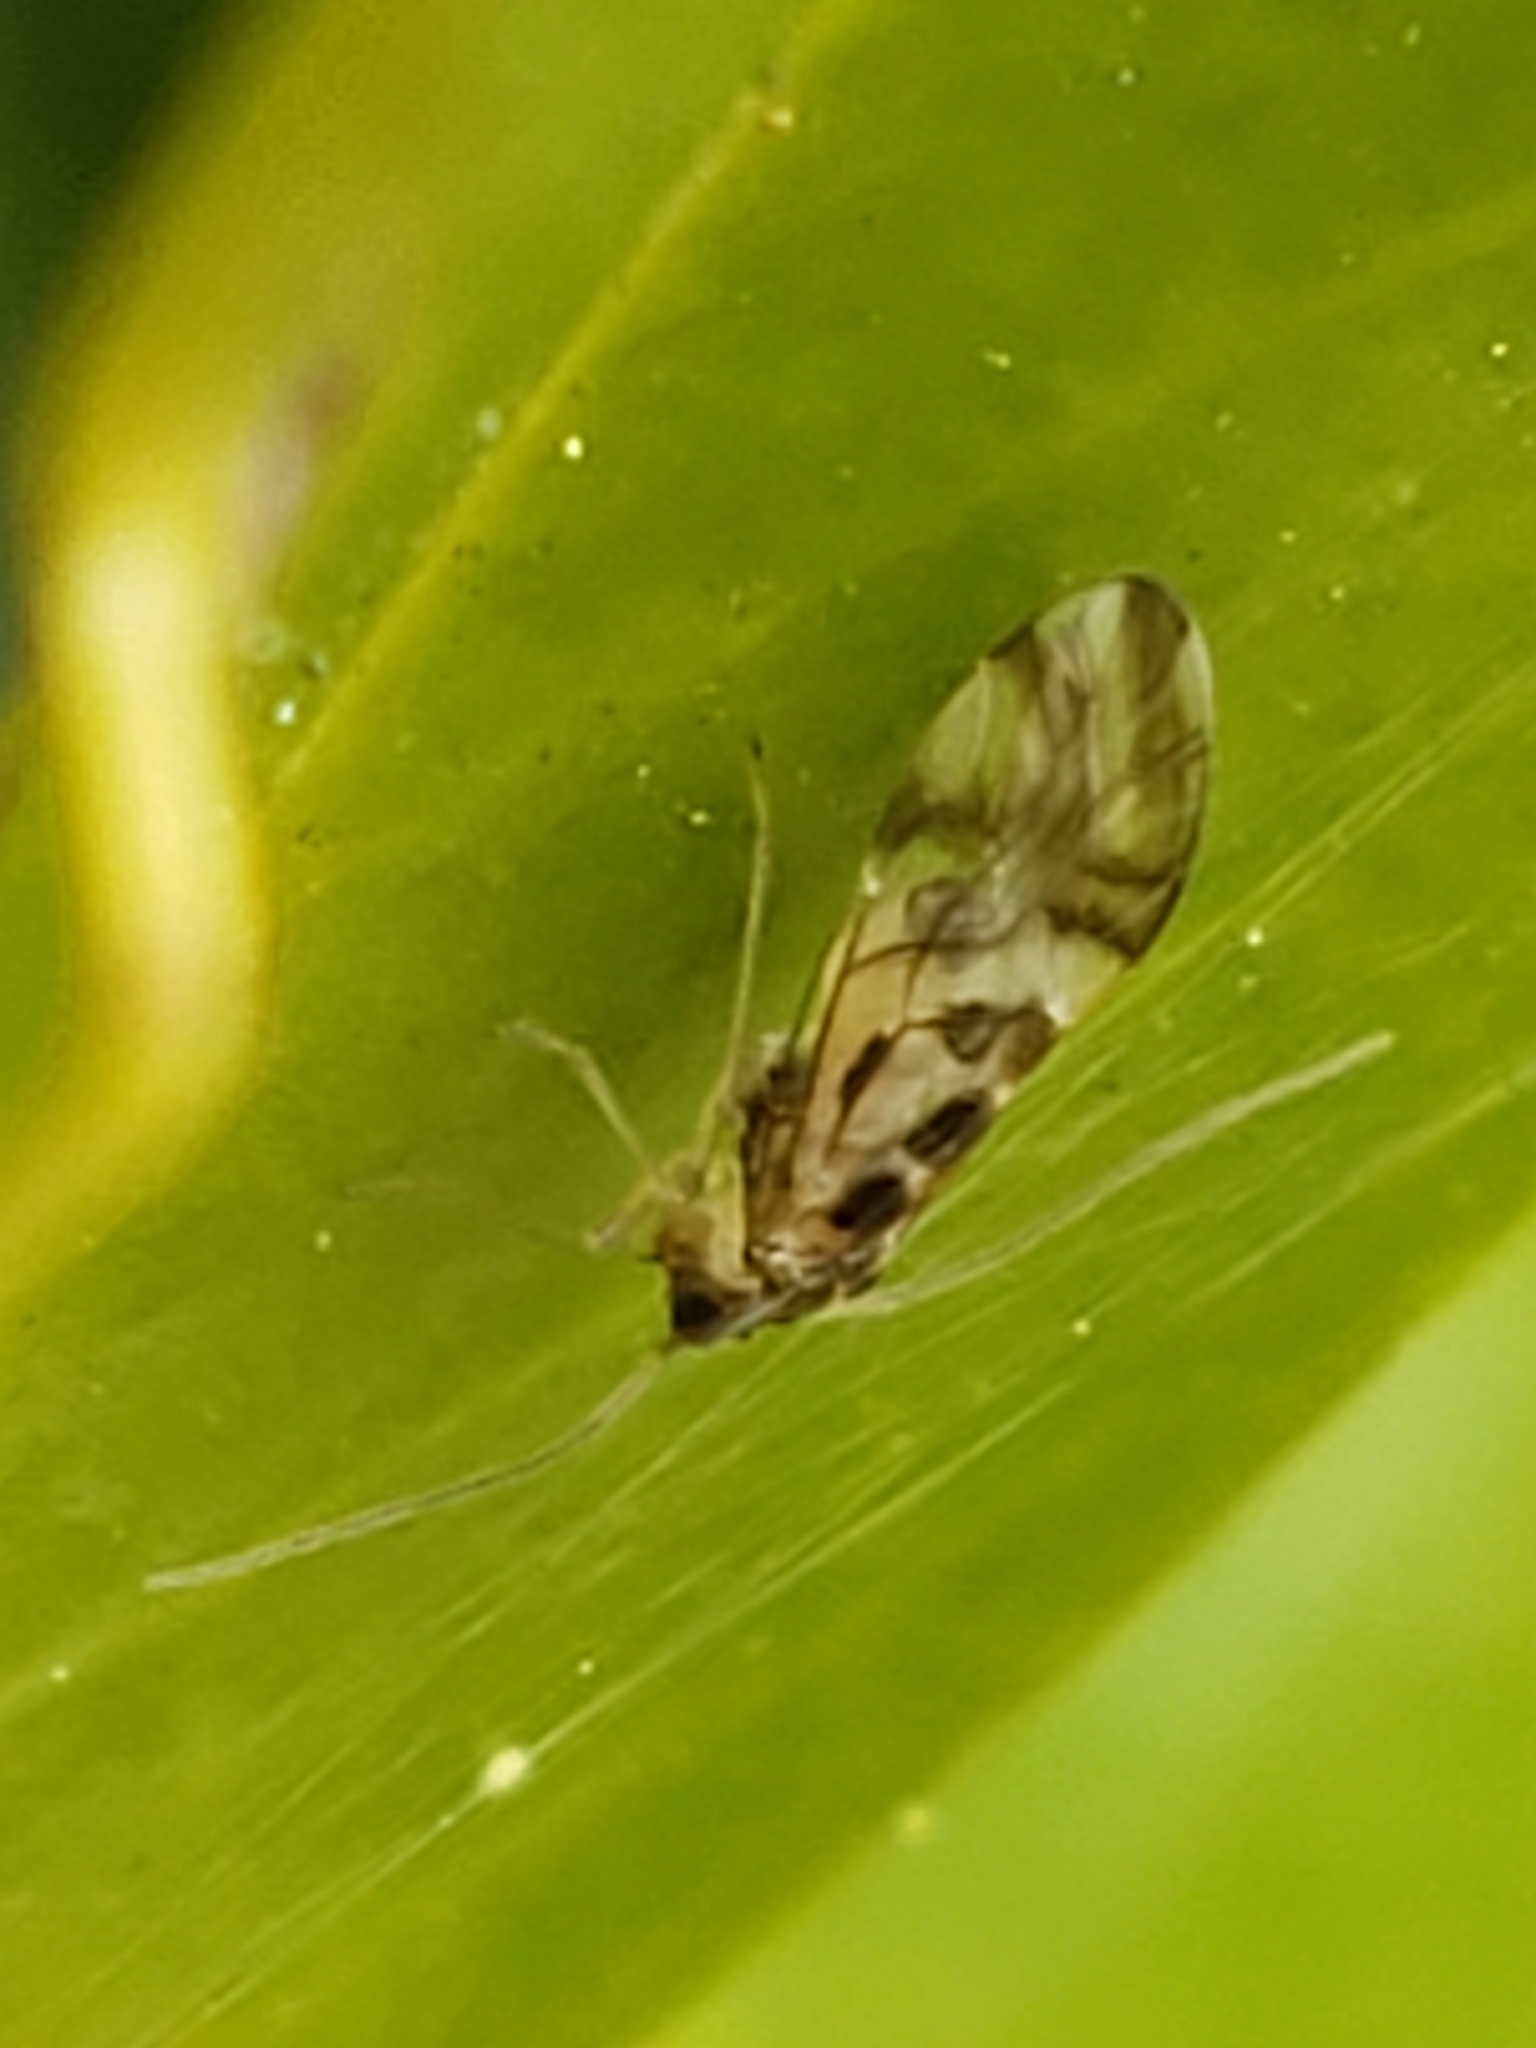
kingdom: Animalia
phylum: Arthropoda
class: Insecta
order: Psocodea
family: Stenopsocidae
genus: Graphopsocus
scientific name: Graphopsocus cruciatus
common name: Lizard bark louse
